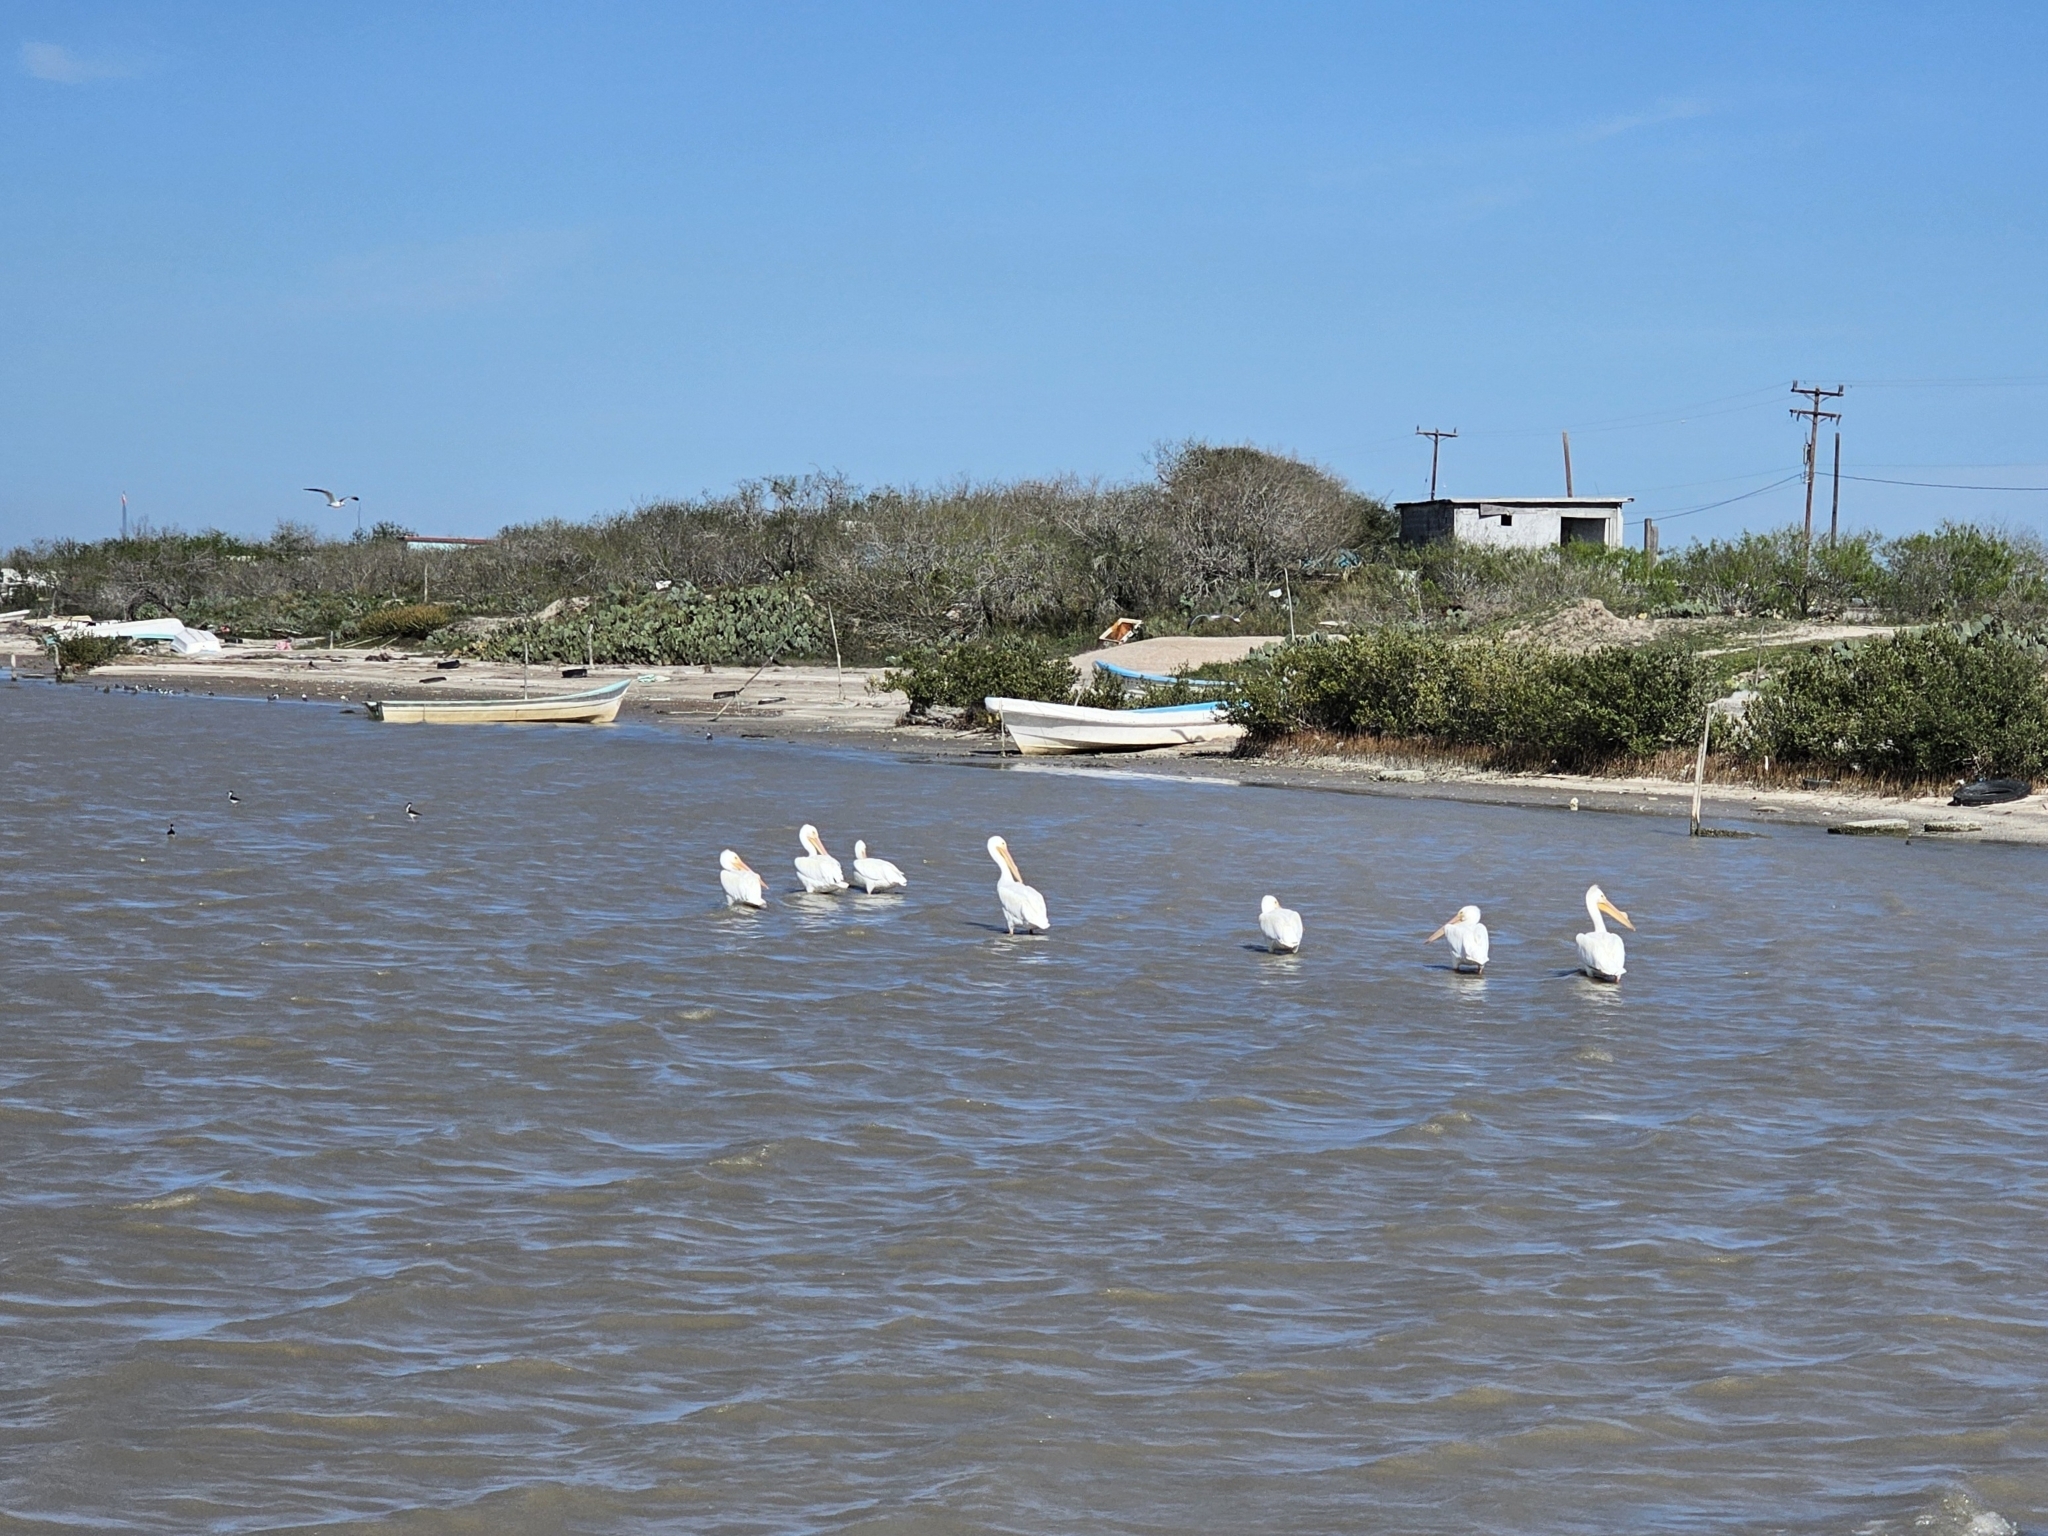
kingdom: Animalia
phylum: Chordata
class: Aves
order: Pelecaniformes
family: Pelecanidae
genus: Pelecanus
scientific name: Pelecanus erythrorhynchos
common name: American white pelican
